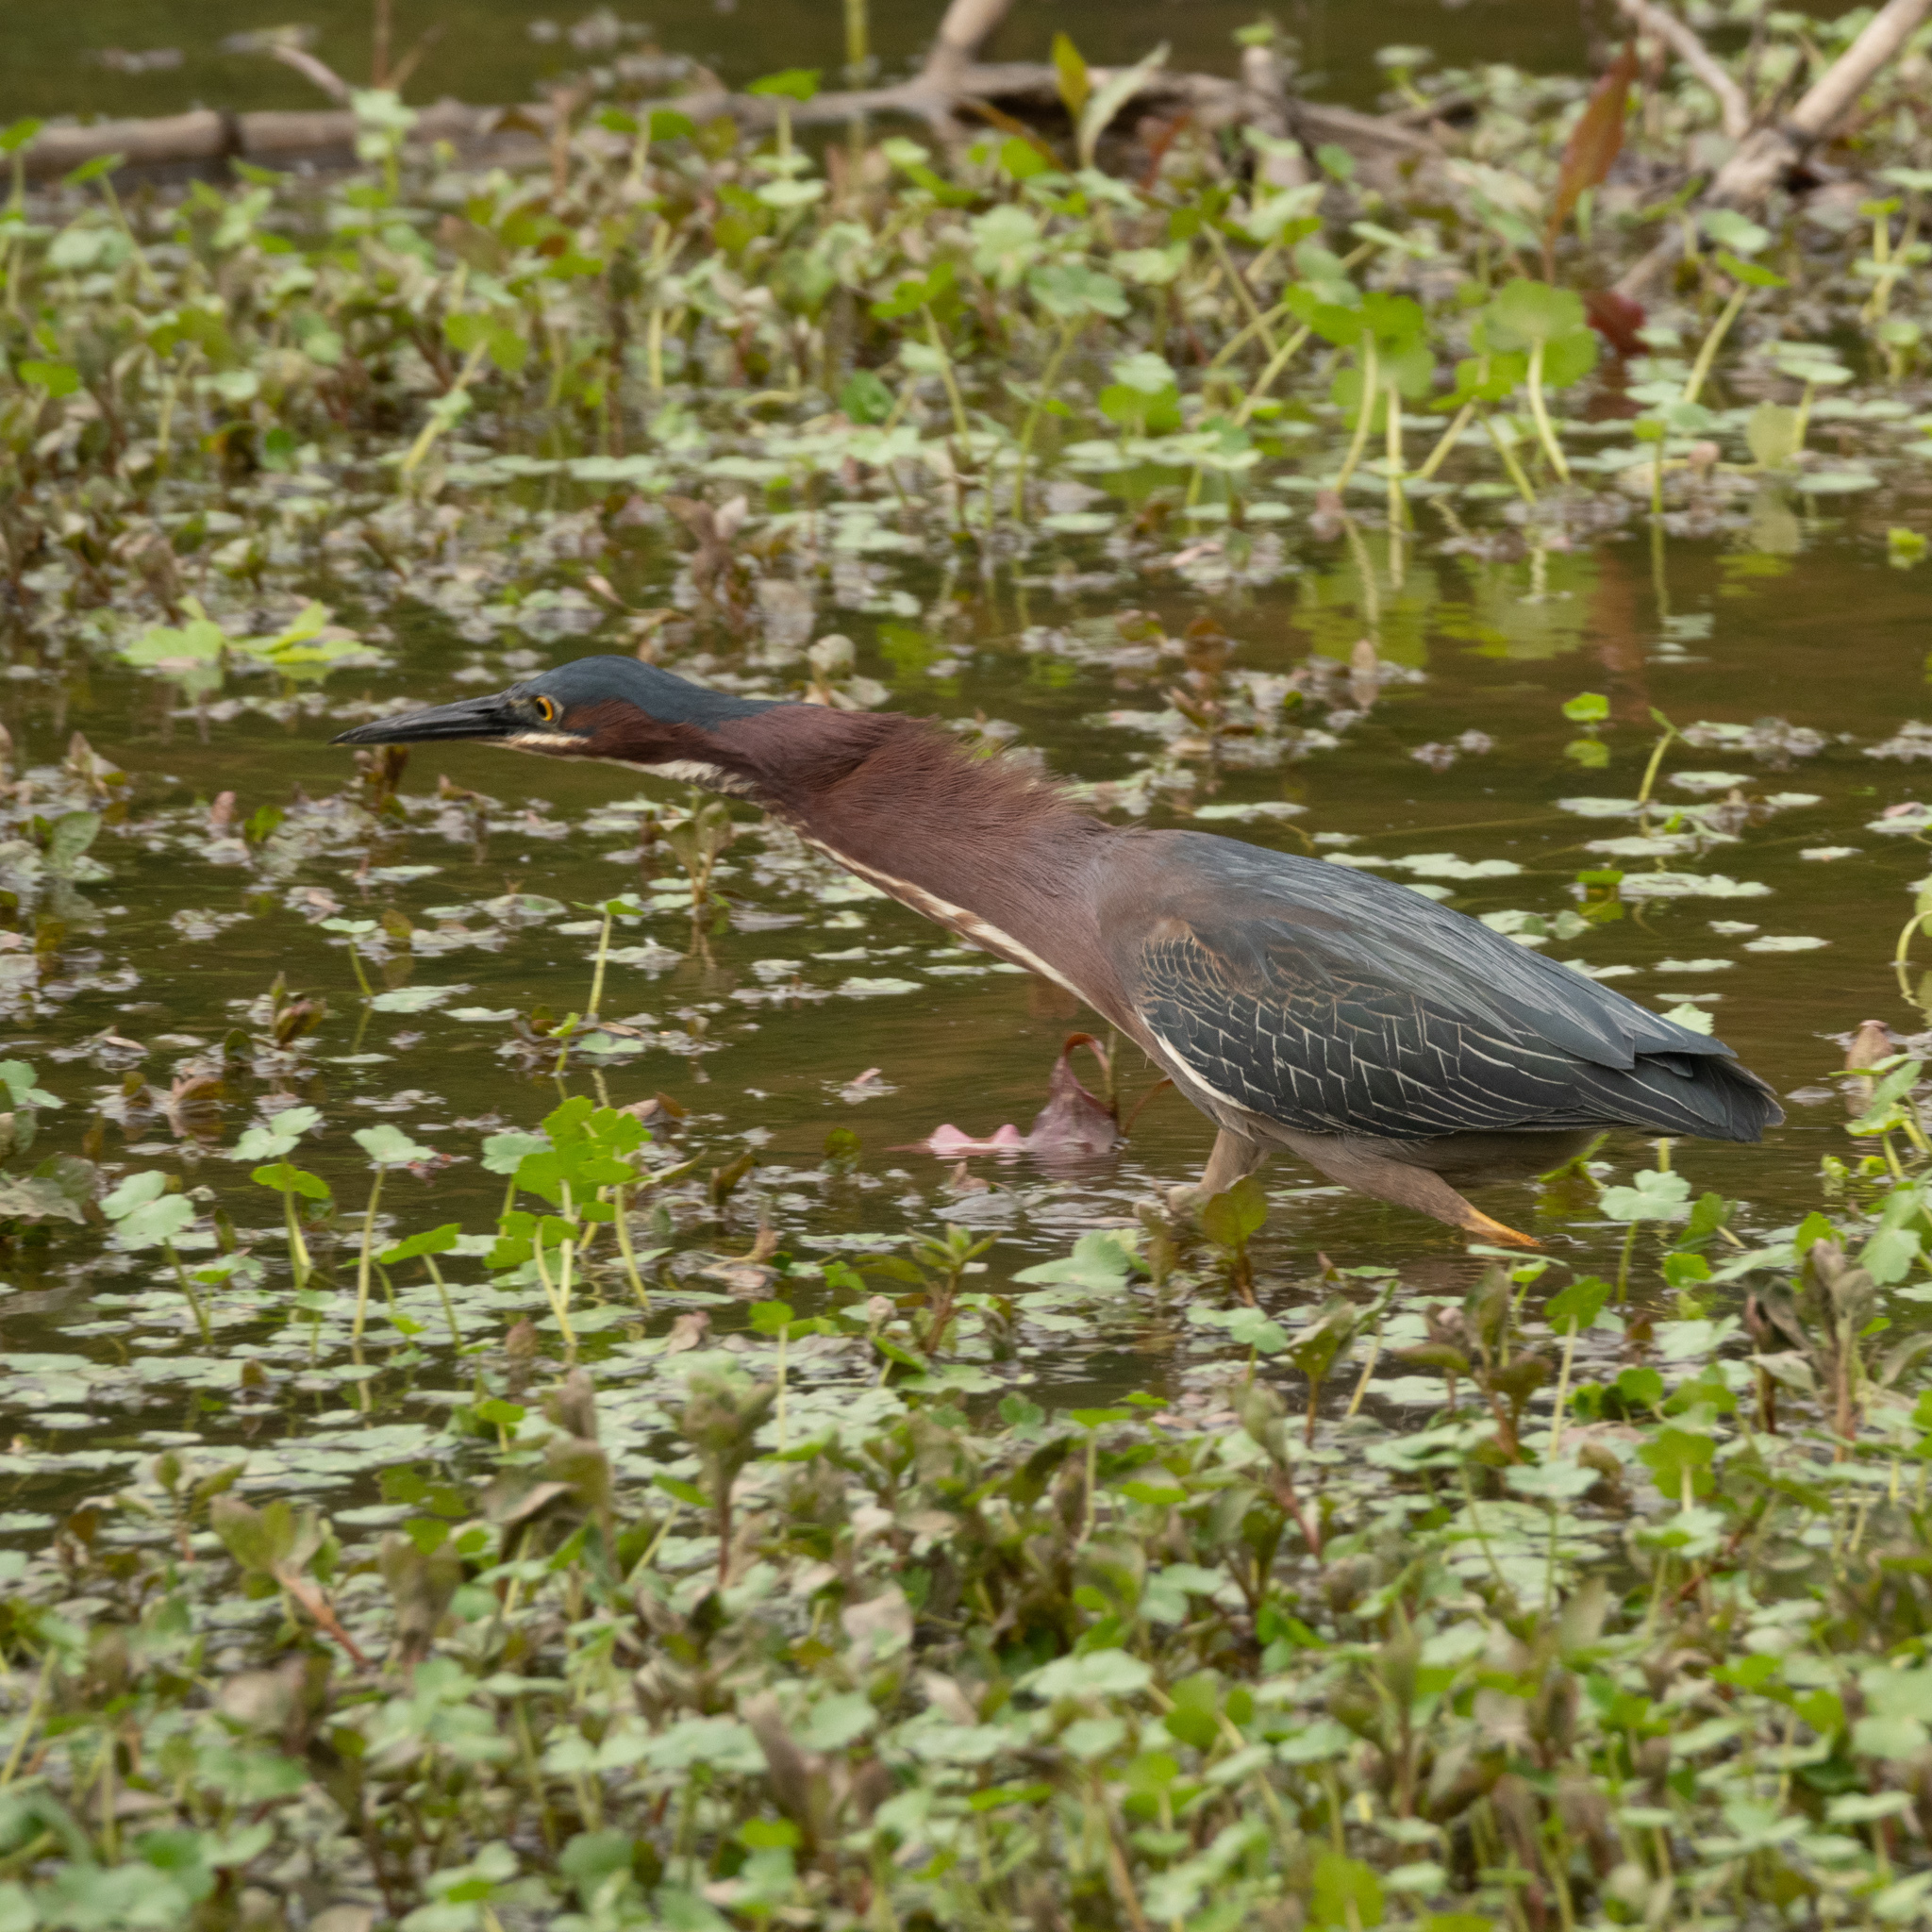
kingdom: Animalia
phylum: Chordata
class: Aves
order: Pelecaniformes
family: Ardeidae
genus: Butorides
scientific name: Butorides virescens
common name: Green heron
